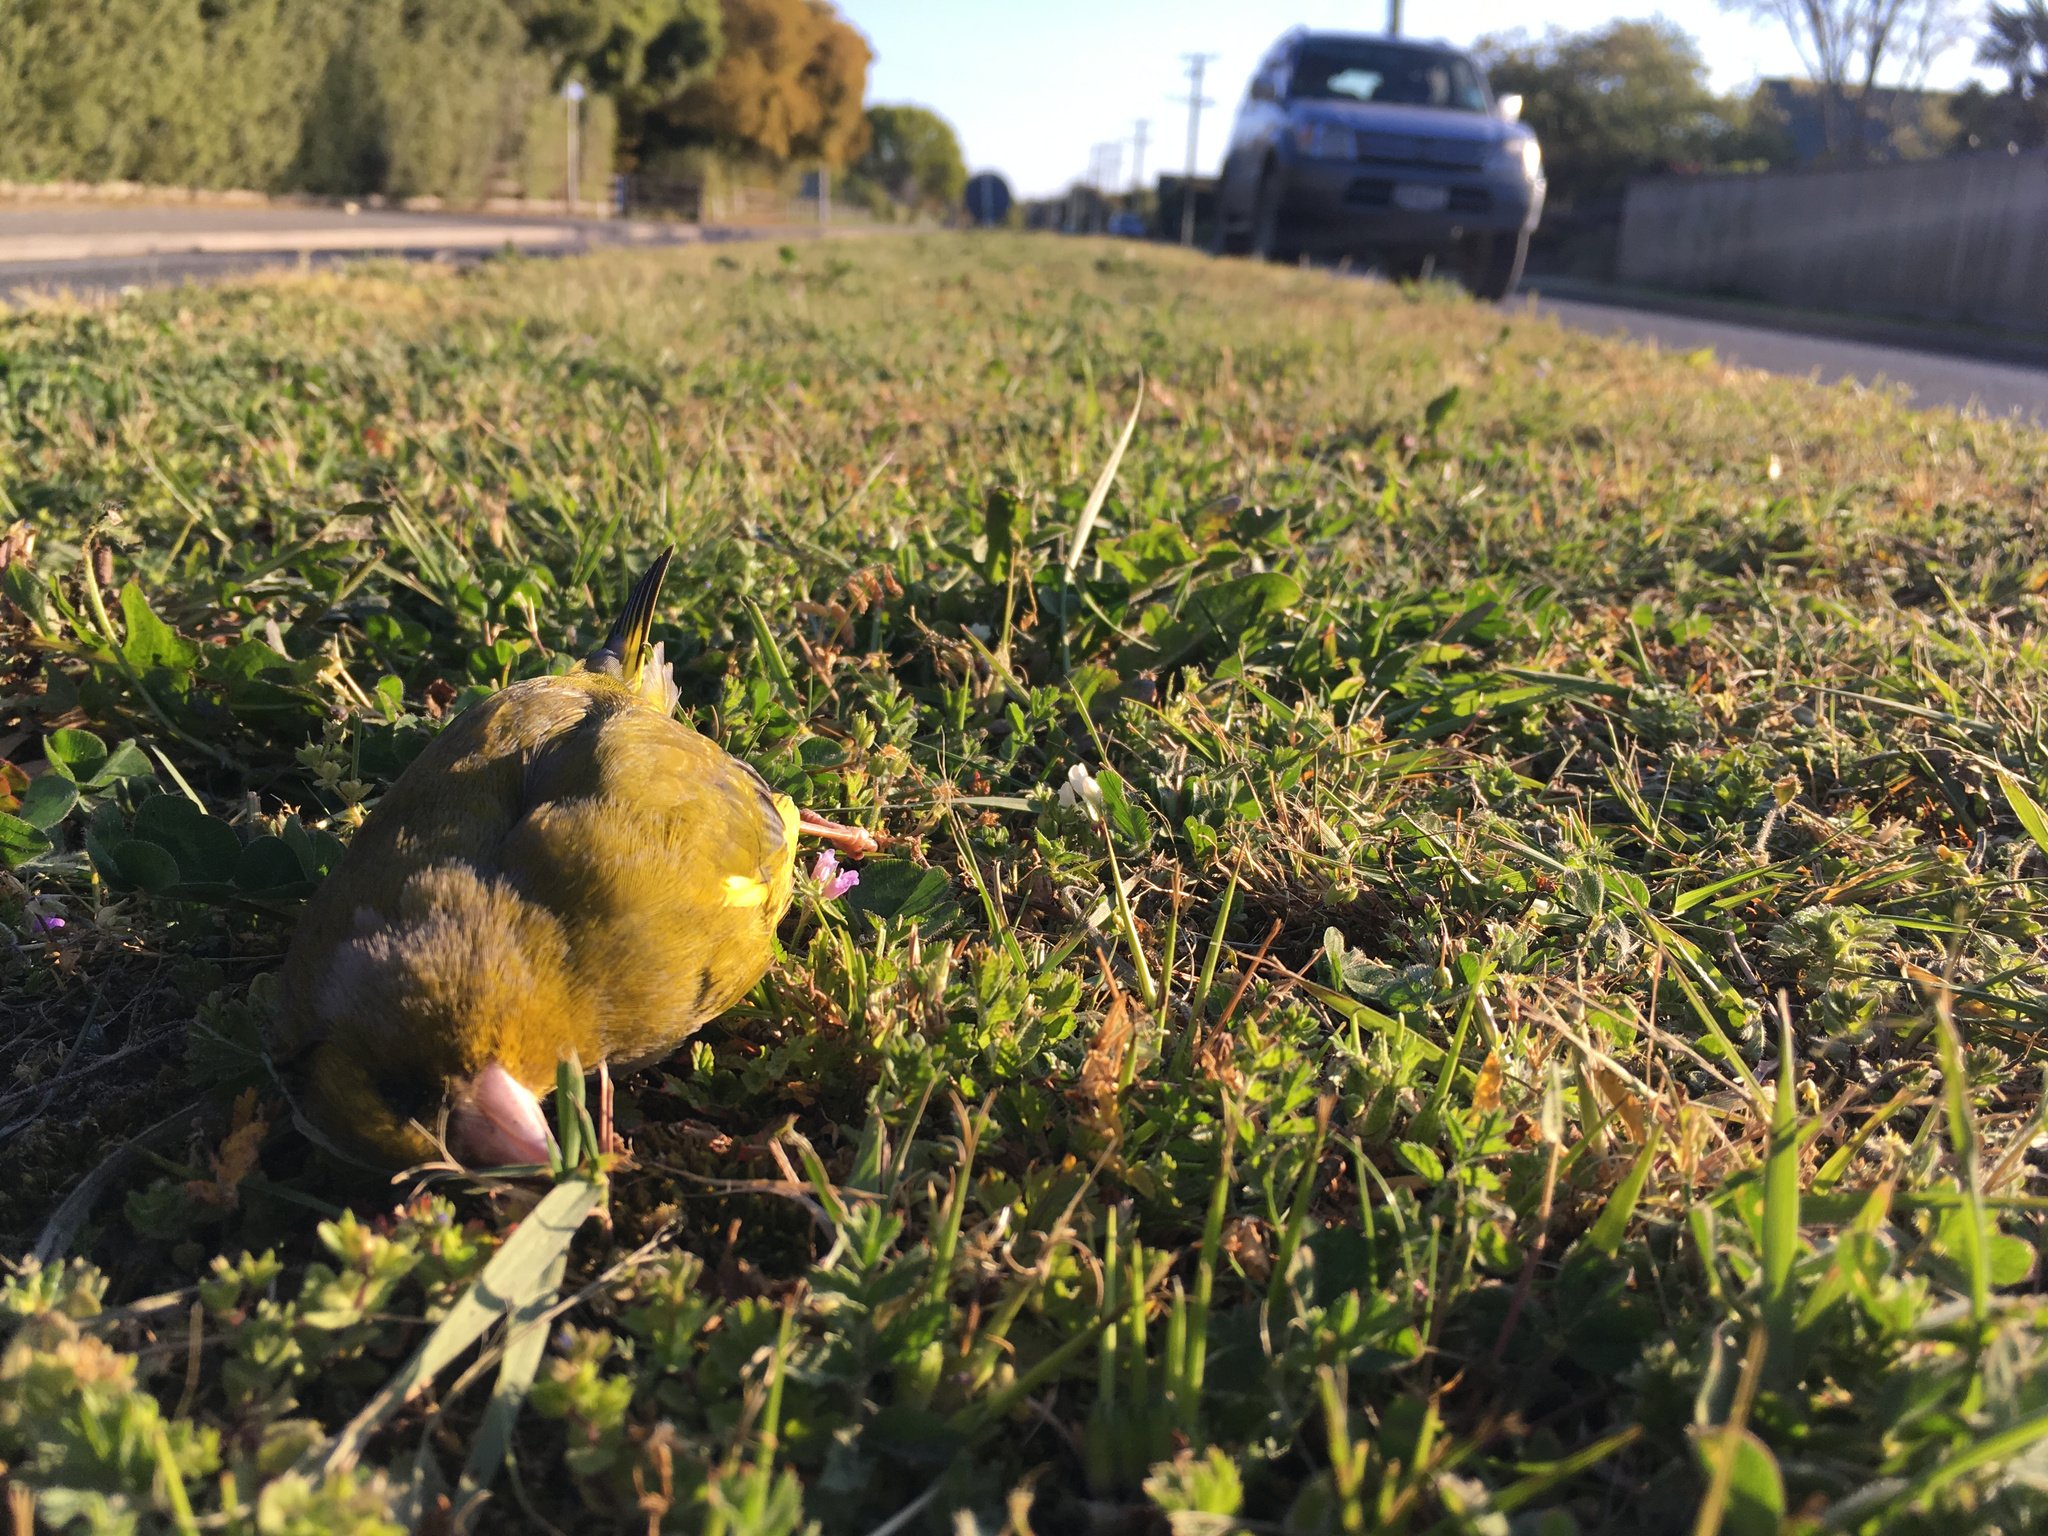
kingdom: Plantae
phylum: Tracheophyta
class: Liliopsida
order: Poales
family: Poaceae
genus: Chloris
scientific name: Chloris chloris
